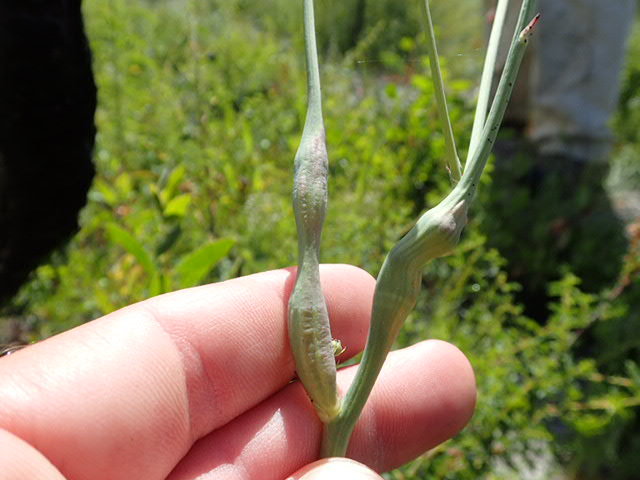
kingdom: Animalia
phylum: Arthropoda
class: Insecta
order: Hymenoptera
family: Cynipidae
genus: Phanacis
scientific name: Phanacis hypochoeridis
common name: Gall wasp
